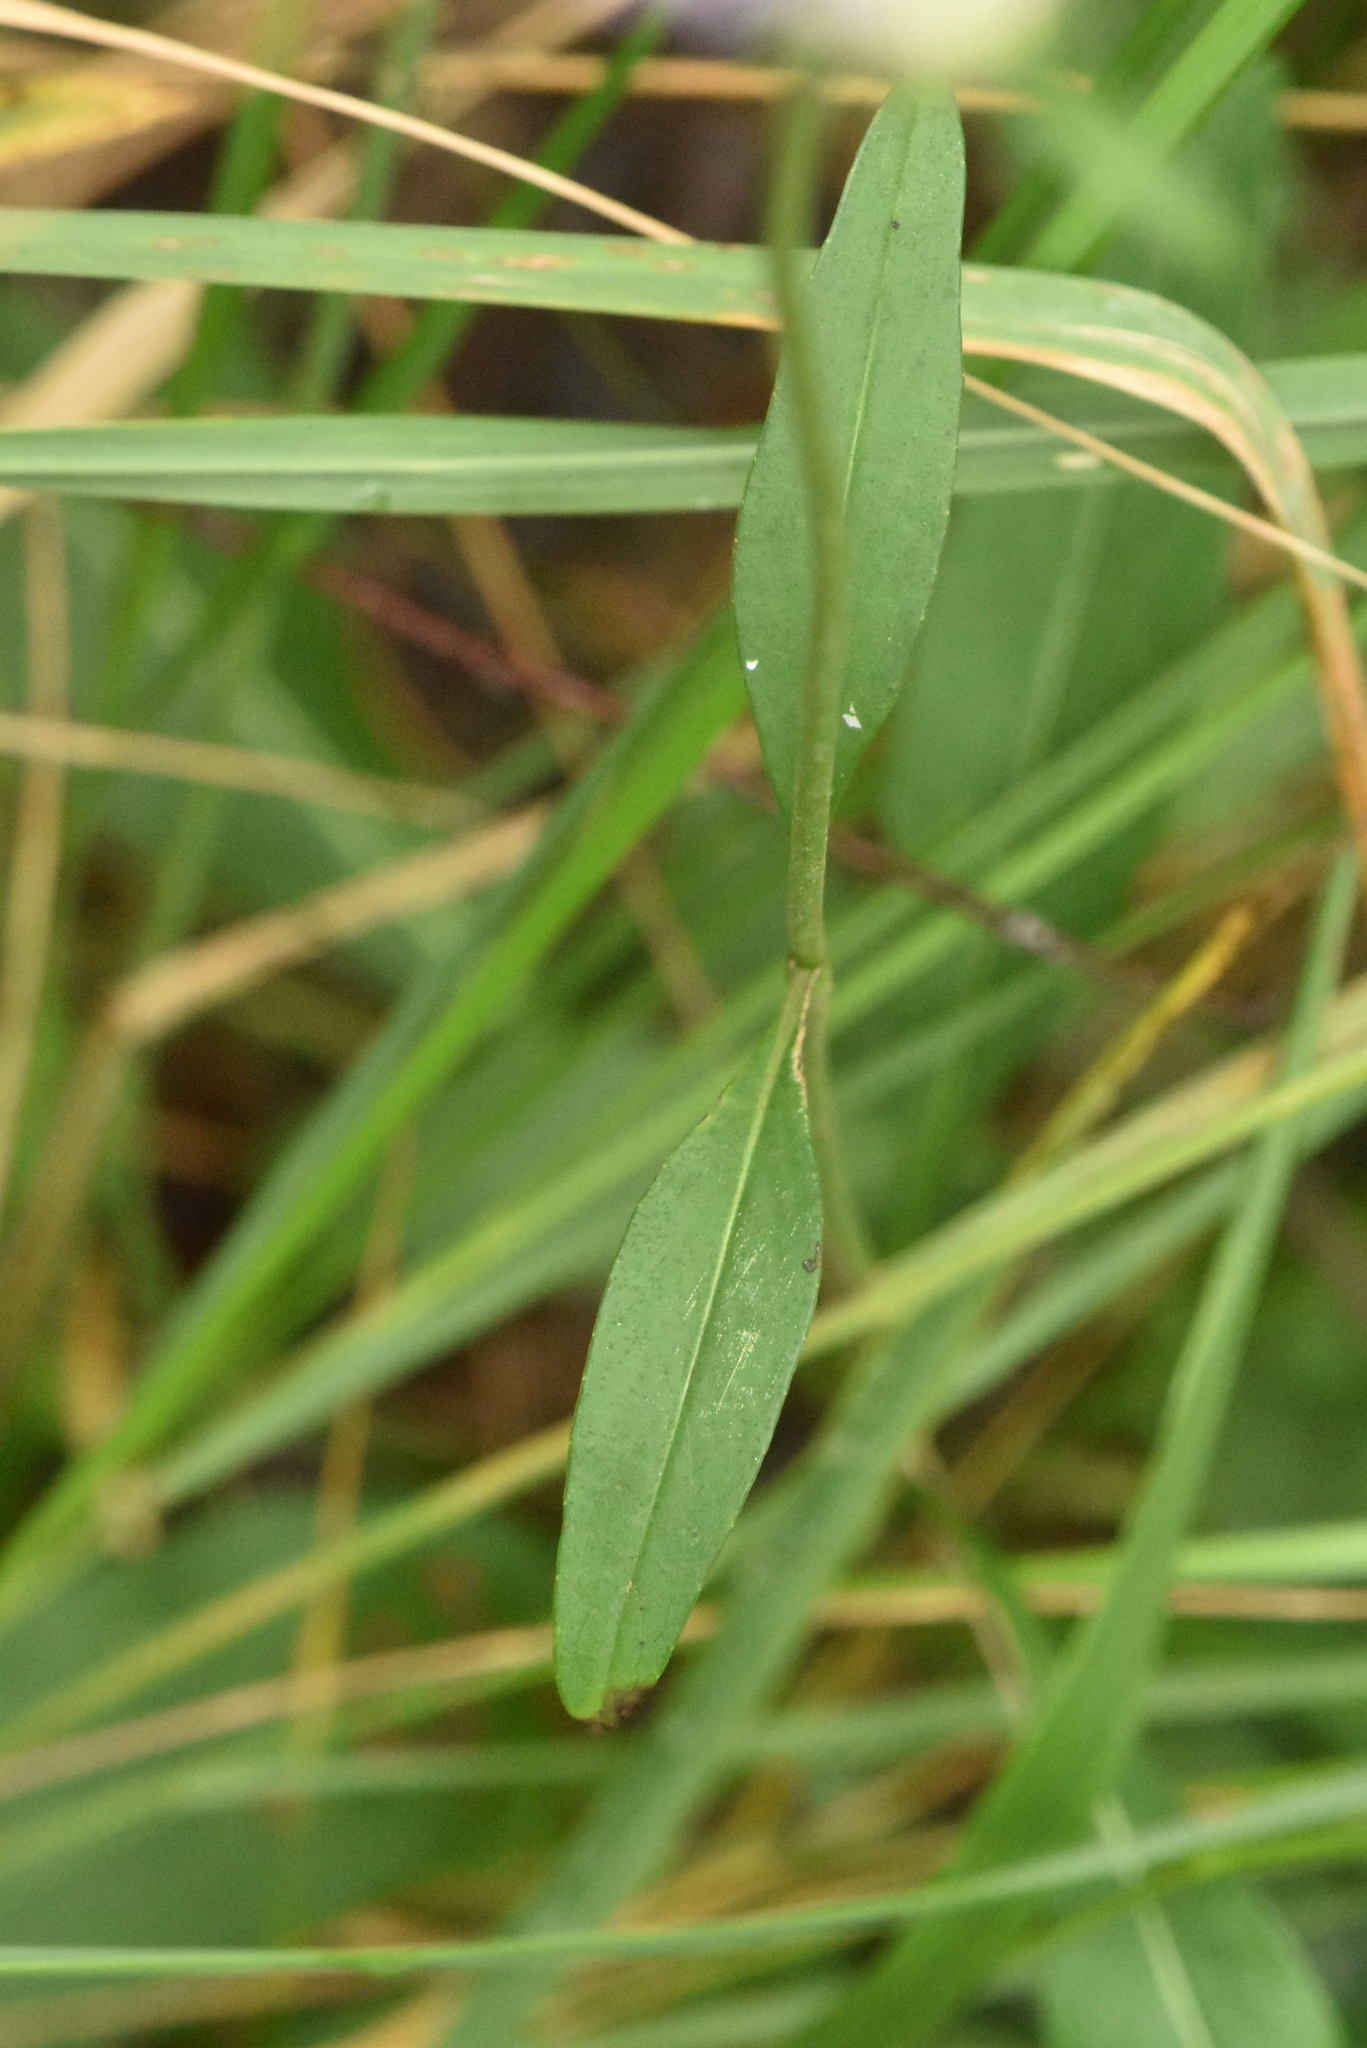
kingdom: Plantae
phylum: Tracheophyta
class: Magnoliopsida
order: Dipsacales
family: Caprifoliaceae
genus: Succisa
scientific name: Succisa pratensis
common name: Devil's-bit
